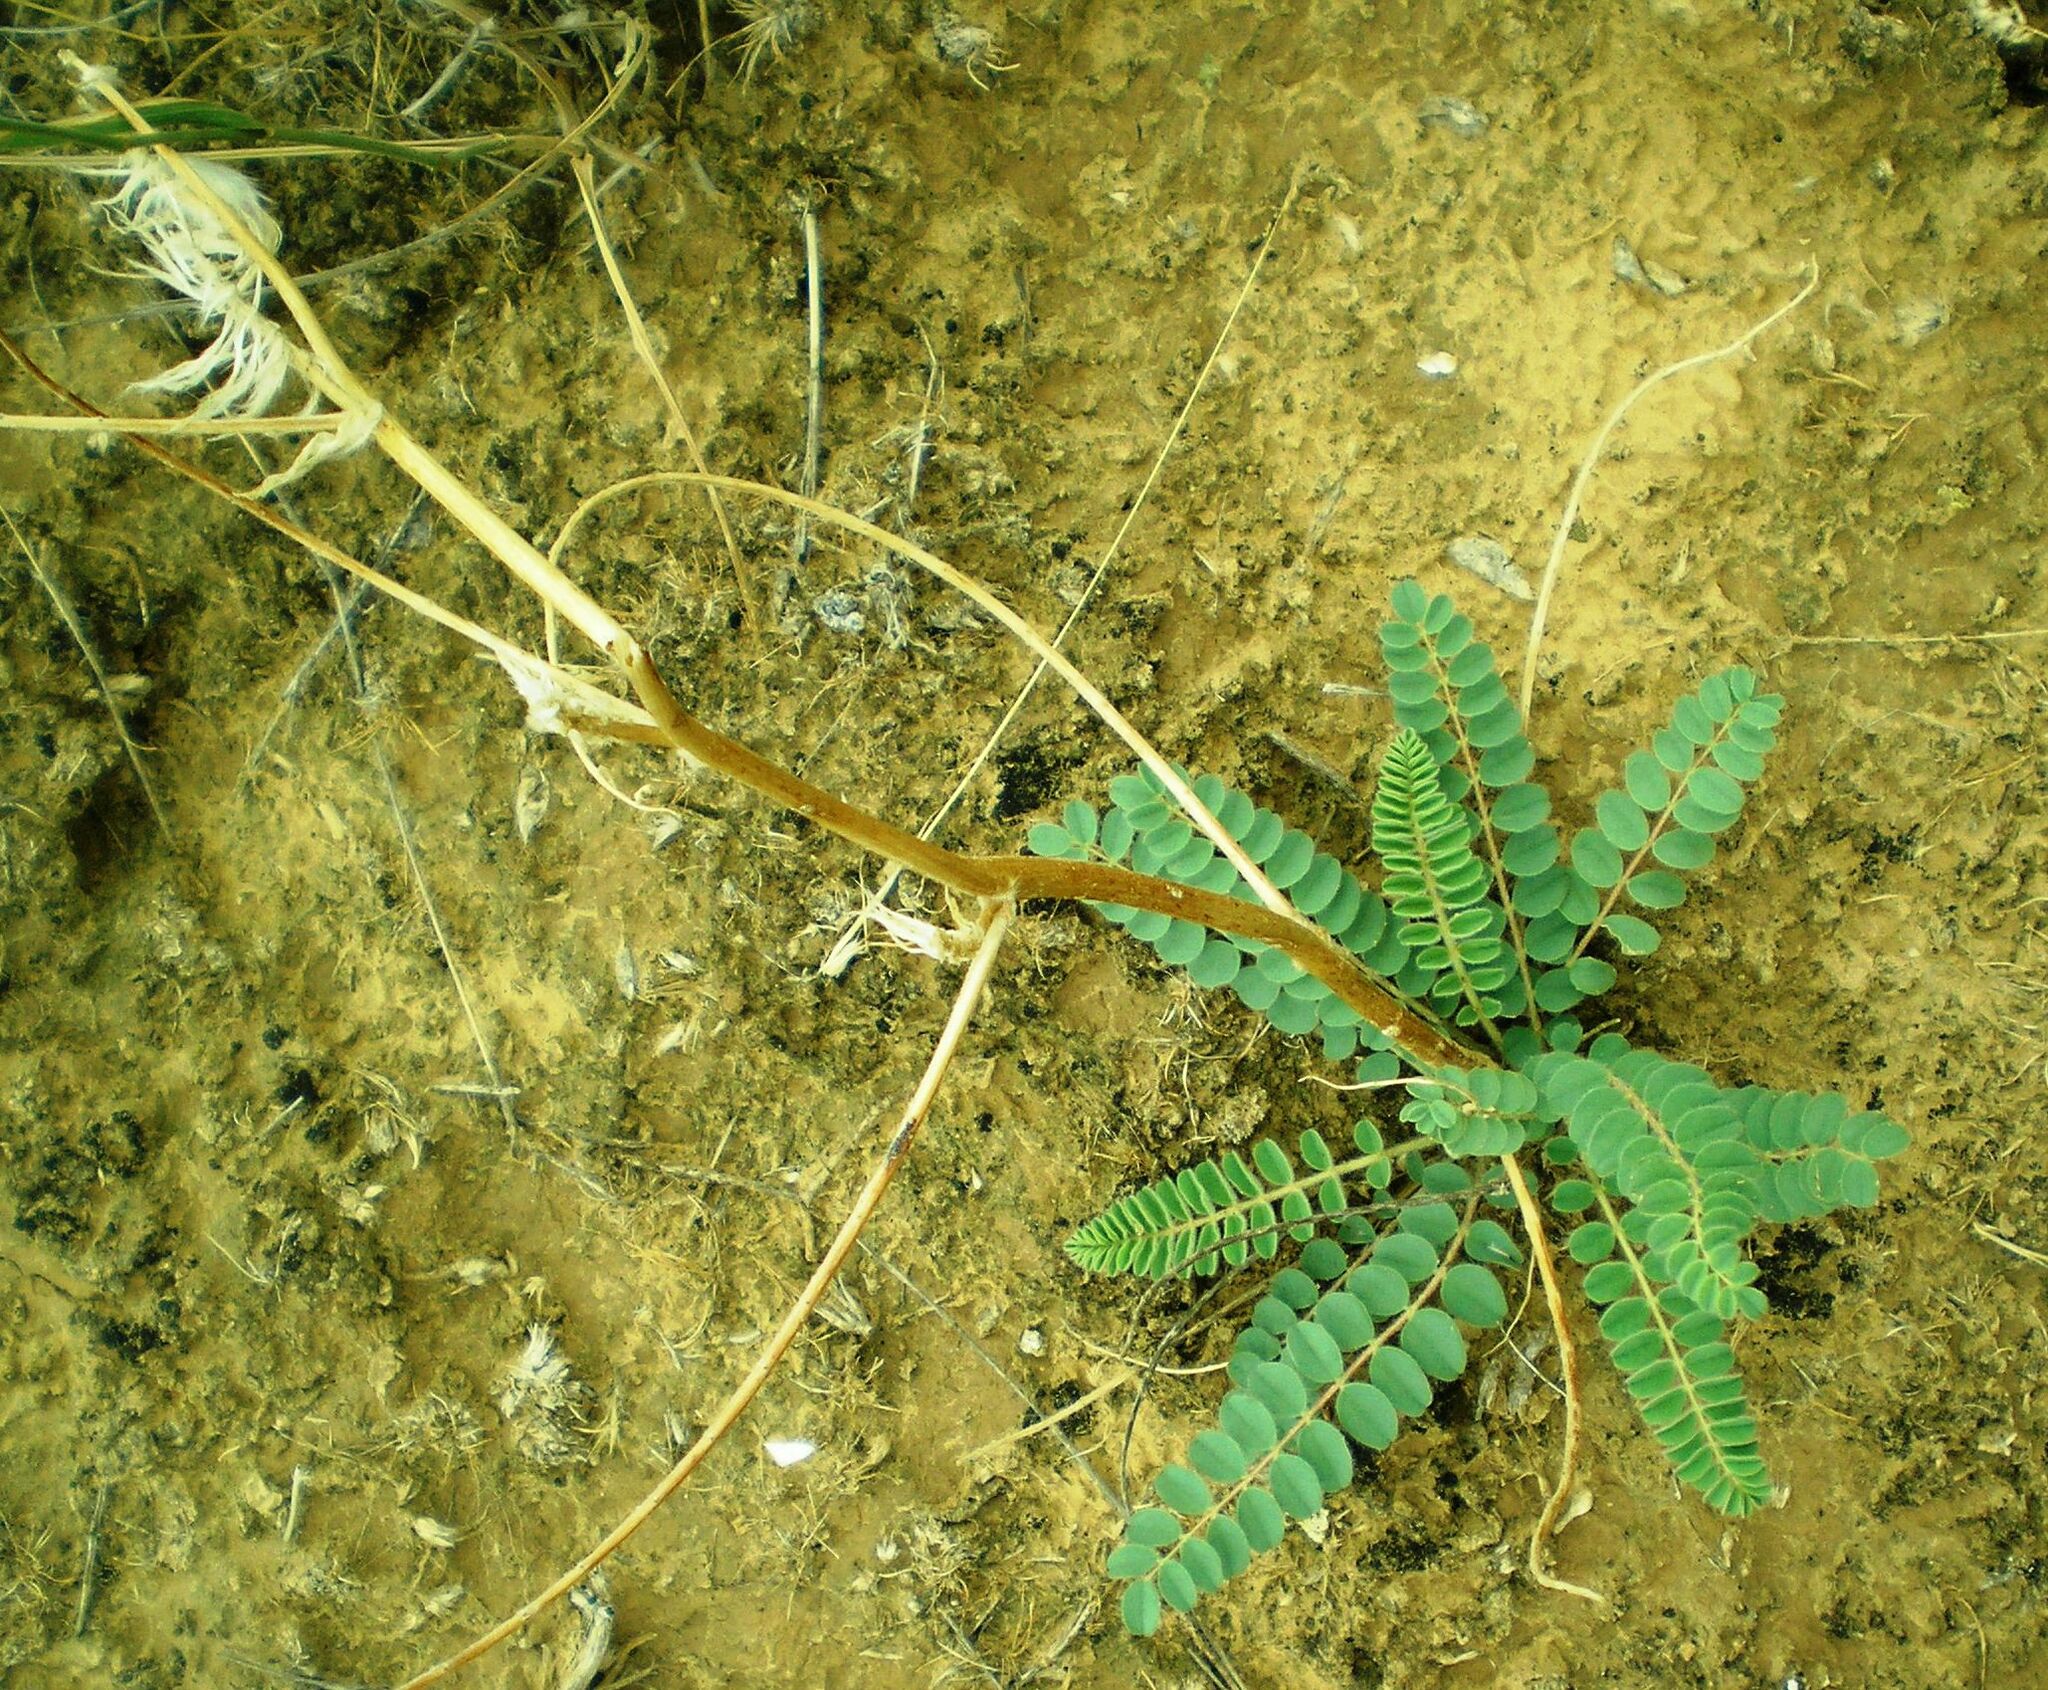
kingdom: Plantae
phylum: Tracheophyta
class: Magnoliopsida
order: Fabales
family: Fabaceae
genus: Astragalus
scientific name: Astragalus vulpinus
